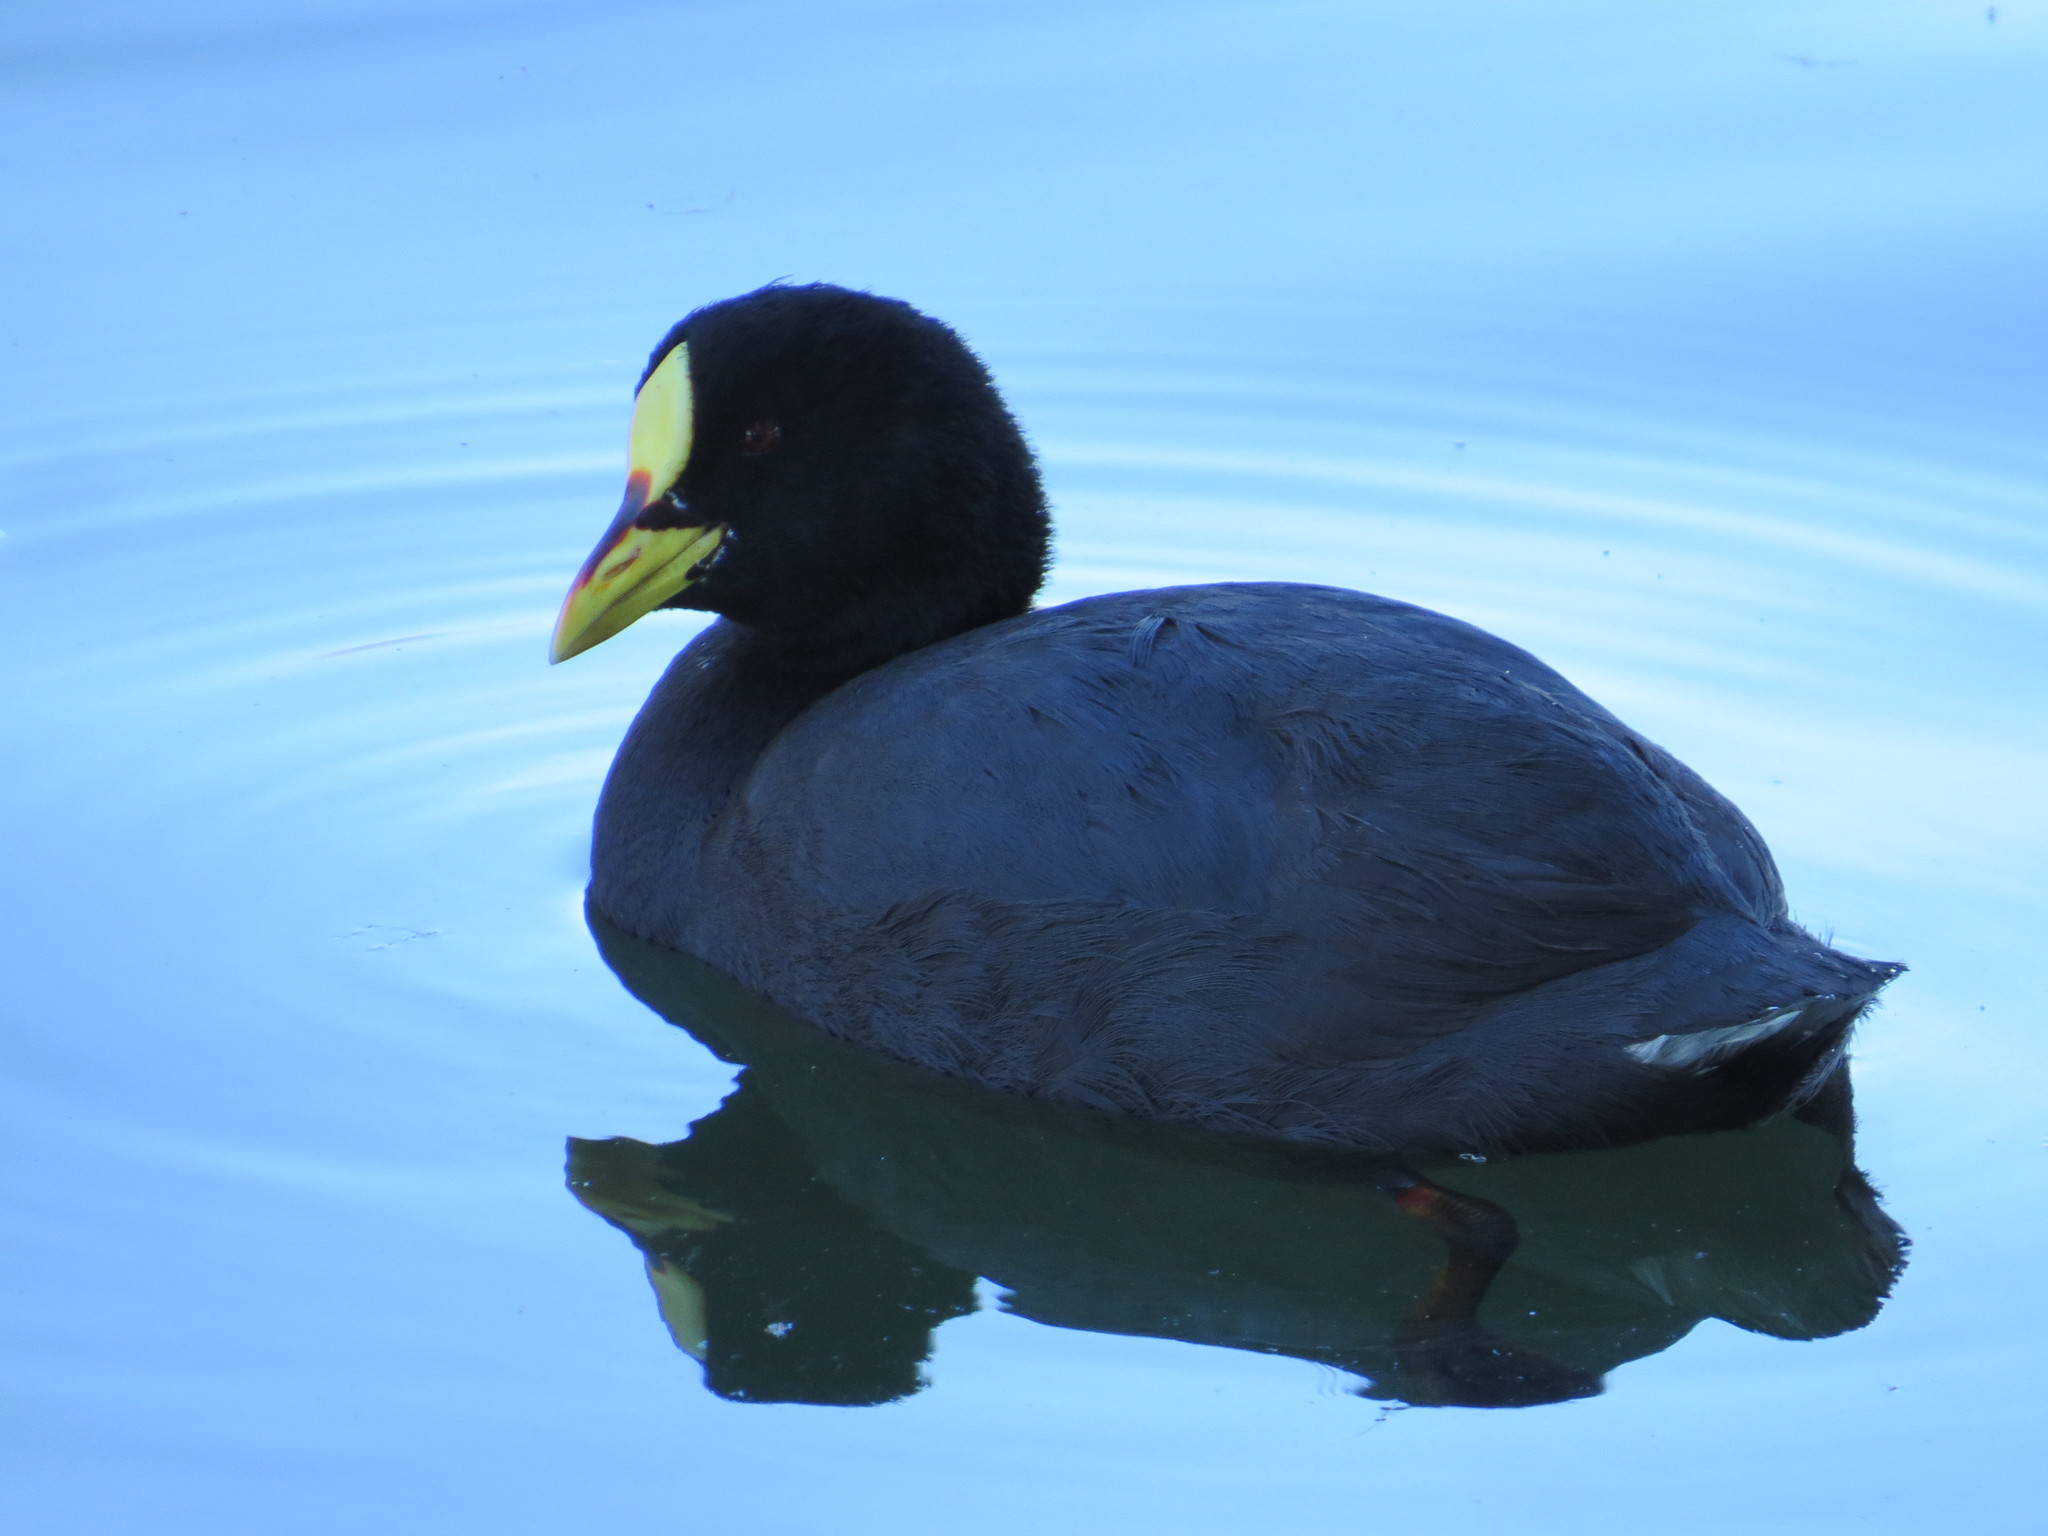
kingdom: Animalia
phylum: Chordata
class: Aves
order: Gruiformes
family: Rallidae
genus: Fulica
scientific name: Fulica armillata
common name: Red-gartered coot
